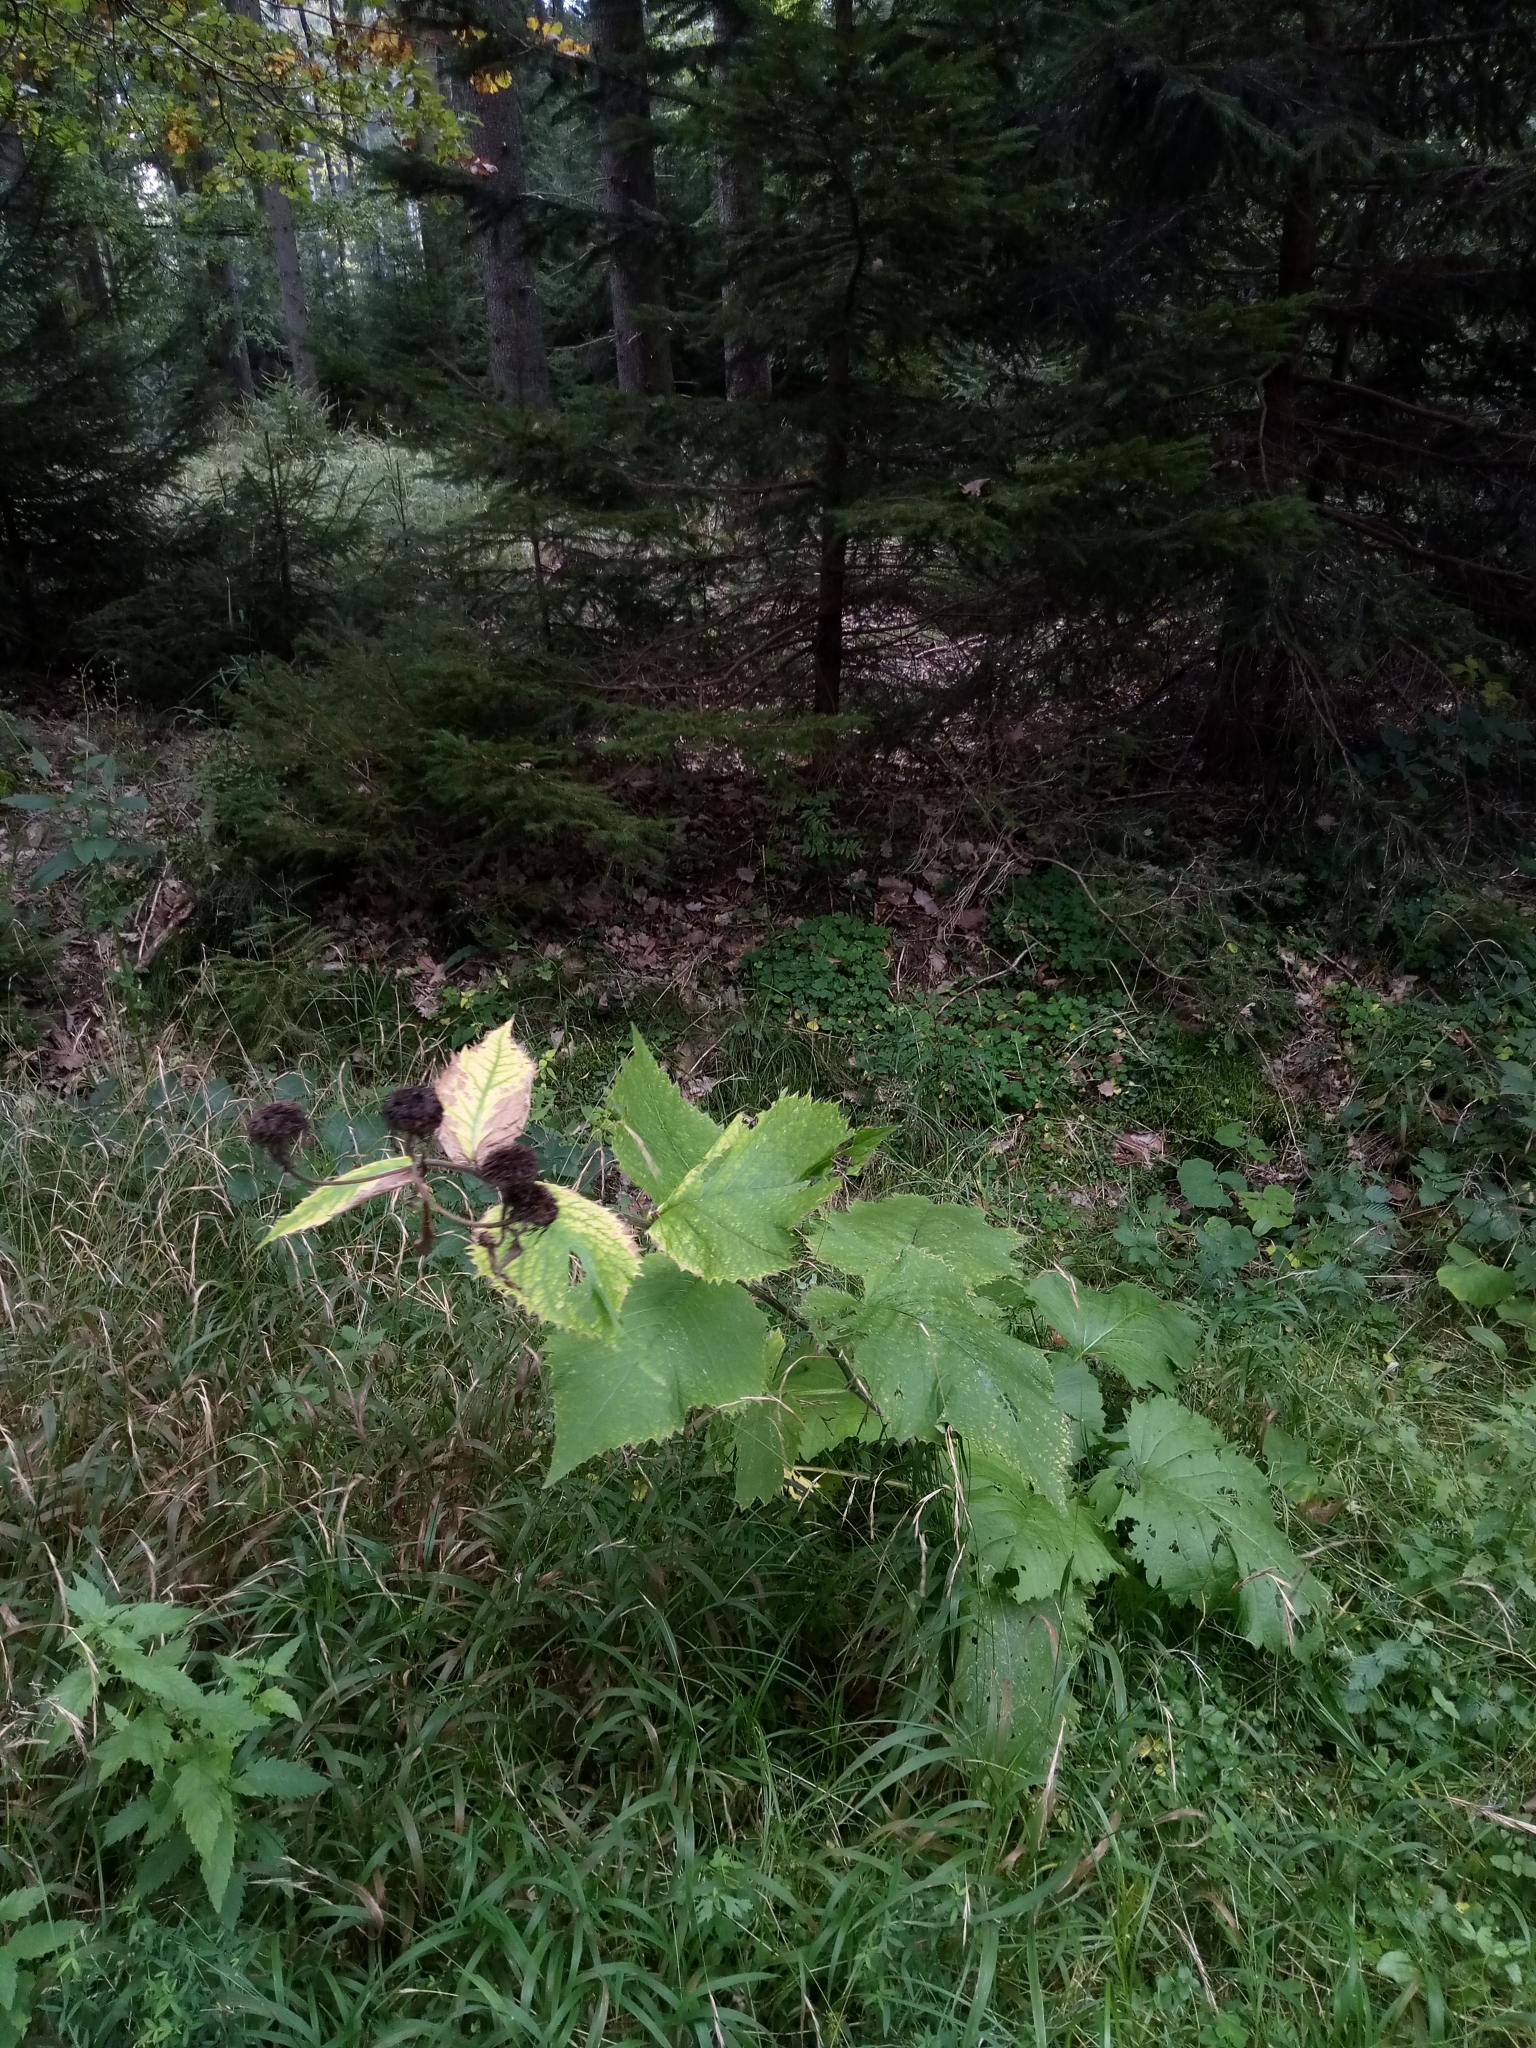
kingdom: Plantae
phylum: Tracheophyta
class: Magnoliopsida
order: Asterales
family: Asteraceae
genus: Telekia
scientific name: Telekia speciosa
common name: Yellow oxeye
